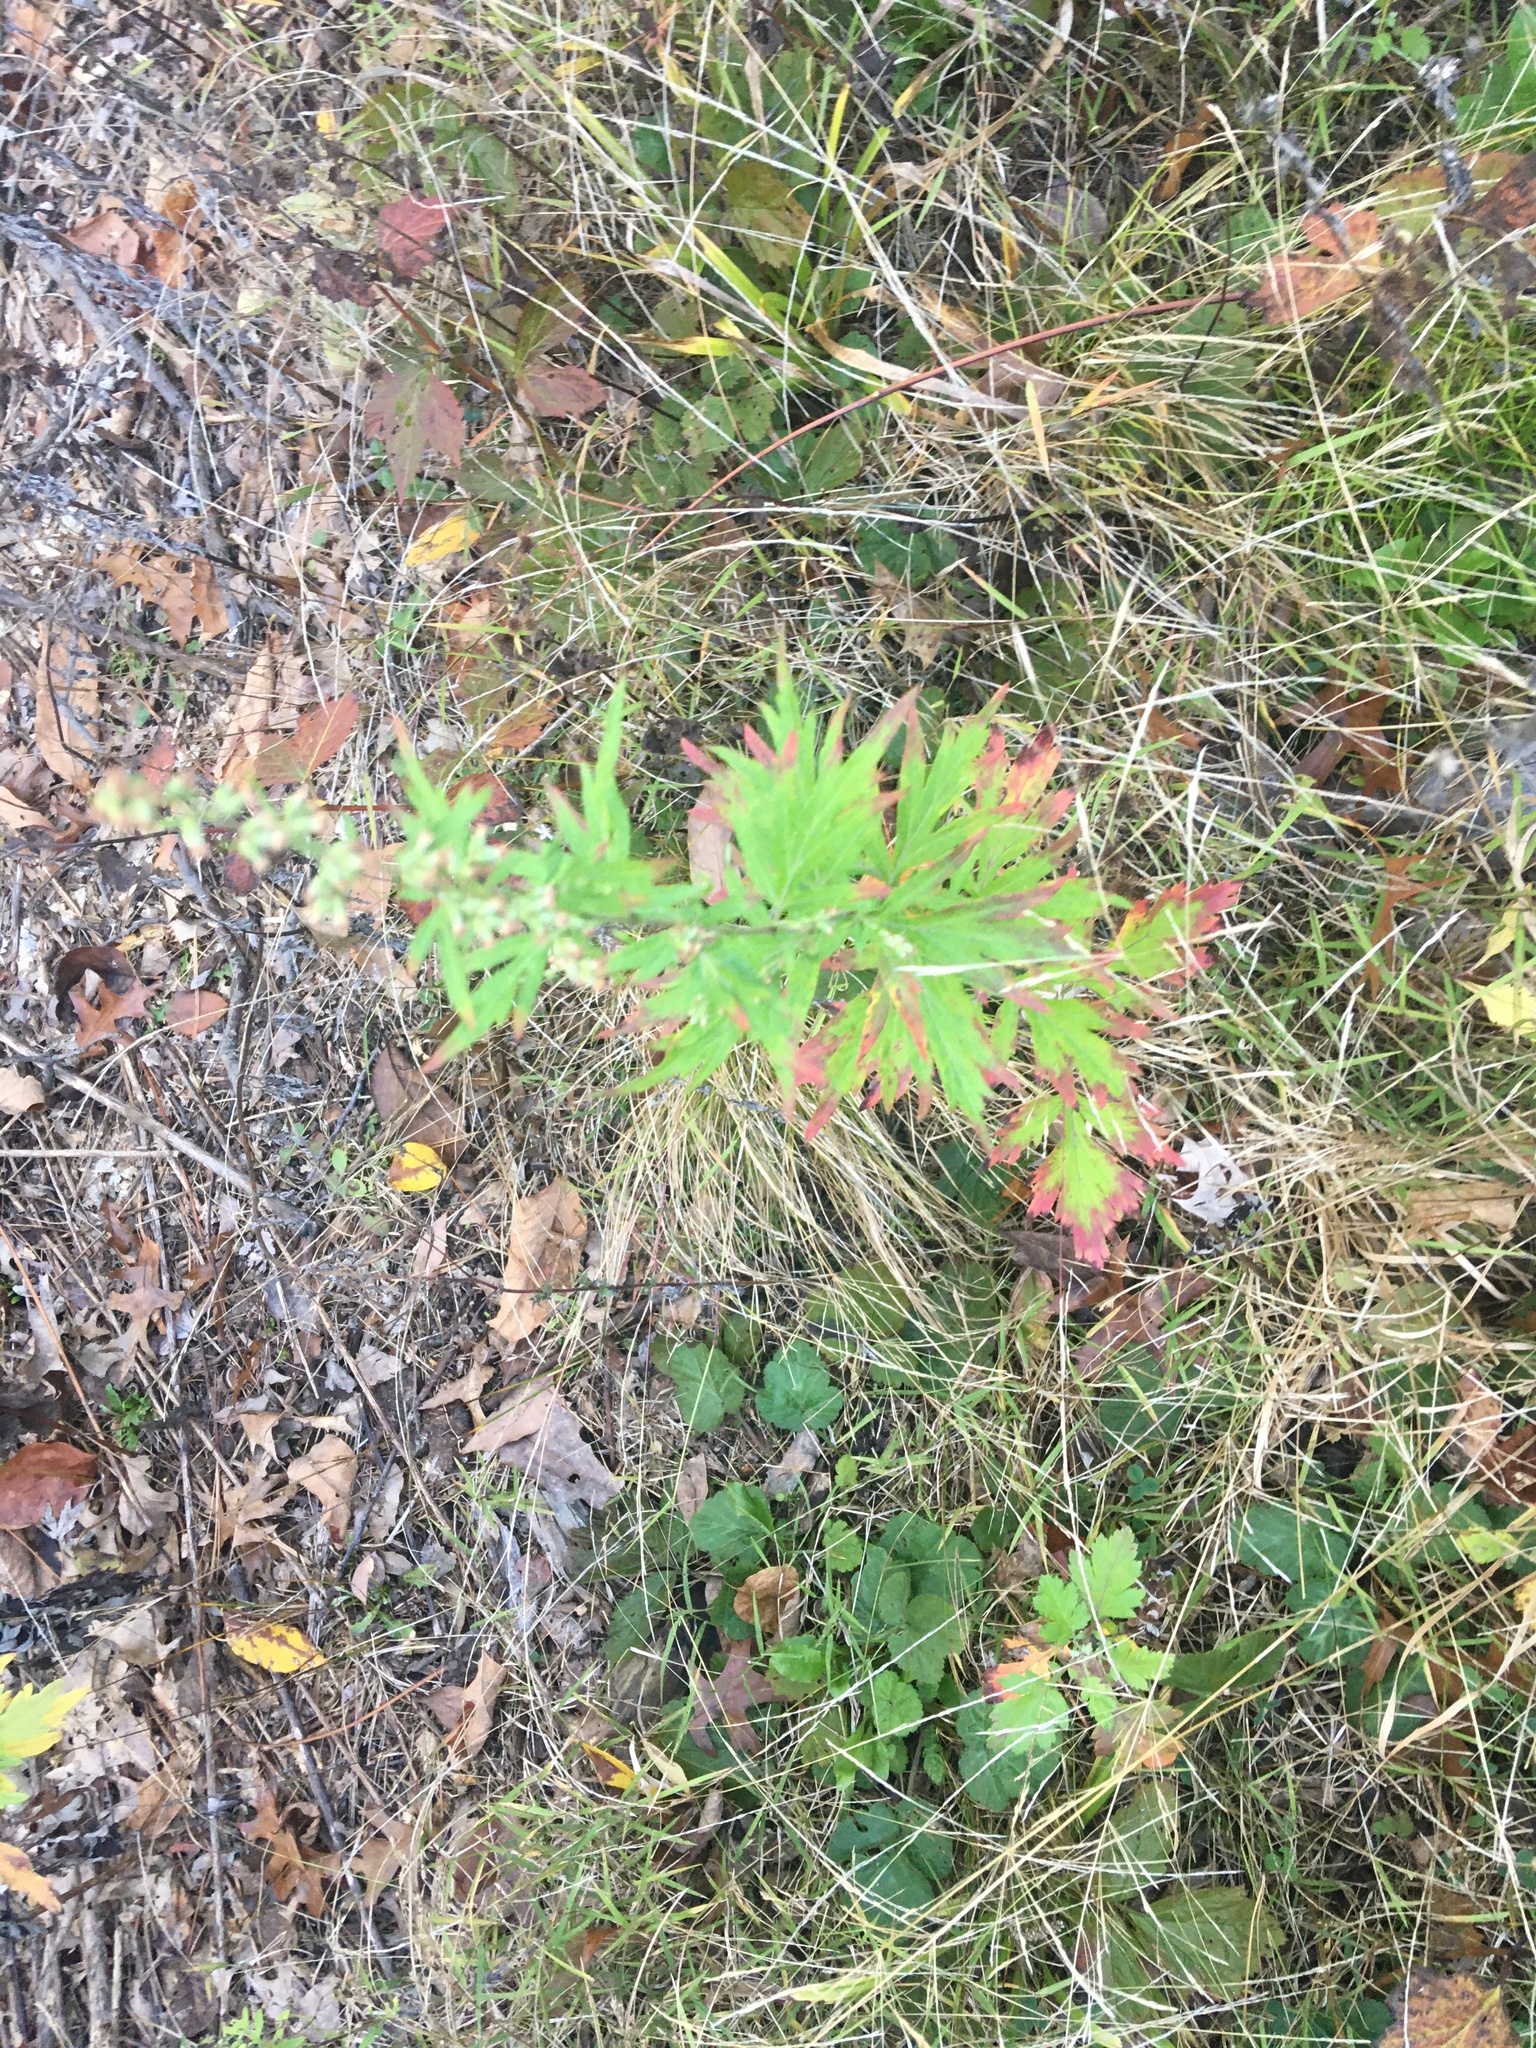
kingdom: Plantae
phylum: Tracheophyta
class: Magnoliopsida
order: Asterales
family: Asteraceae
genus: Artemisia
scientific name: Artemisia vulgaris
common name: Mugwort
